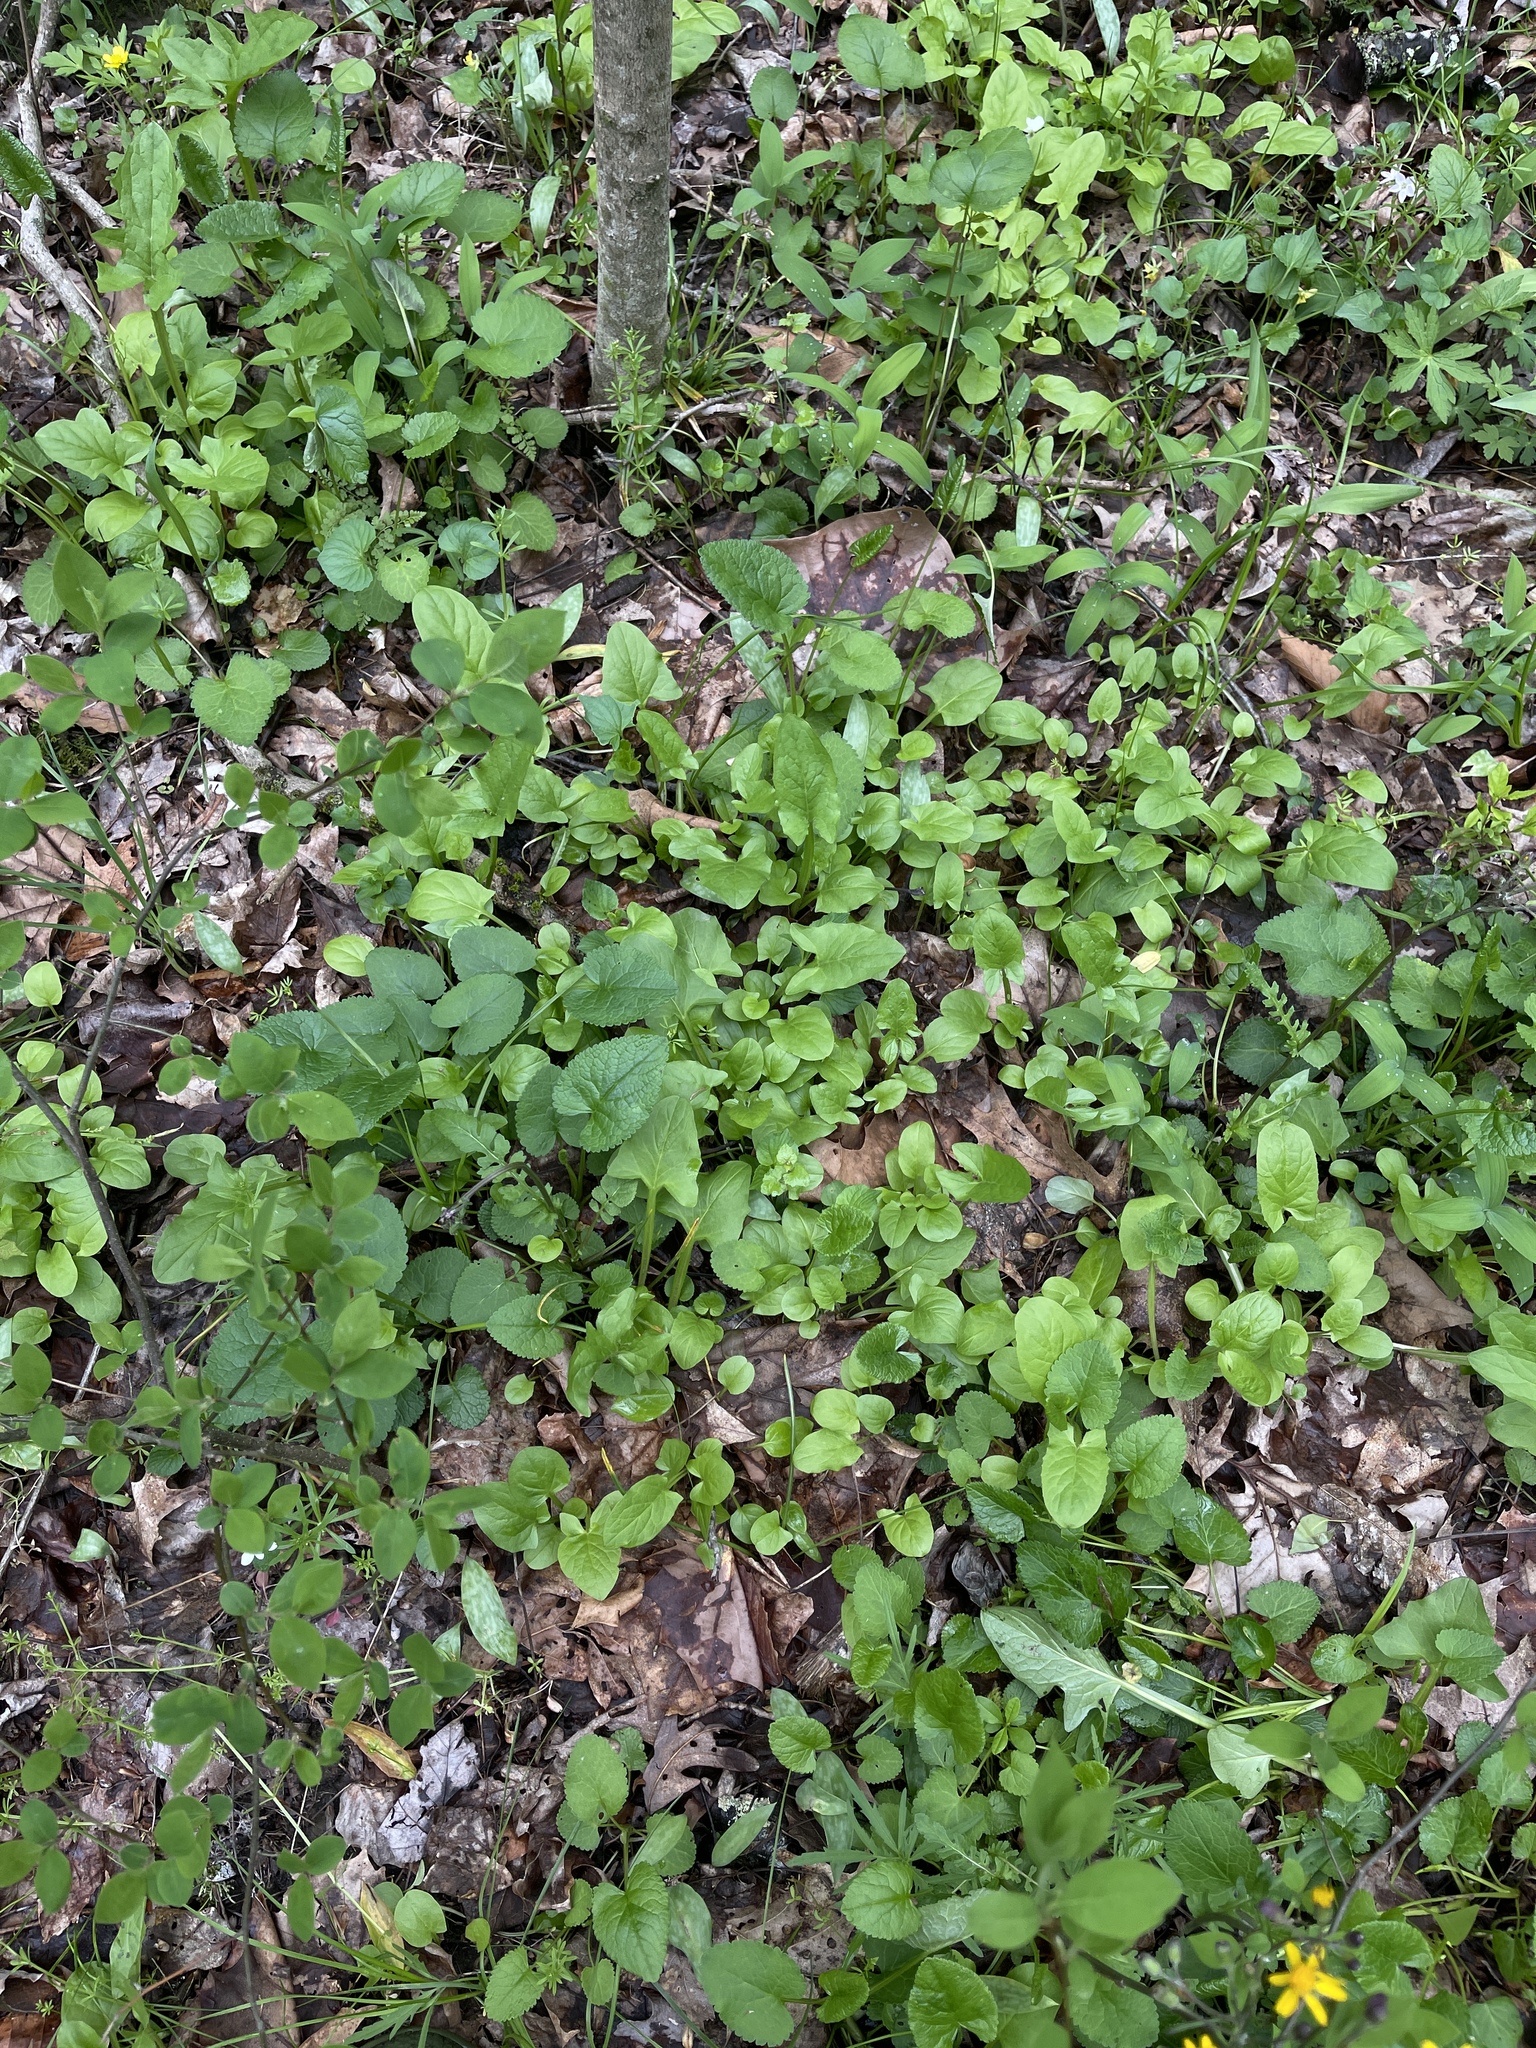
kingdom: Plantae
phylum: Tracheophyta
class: Magnoliopsida
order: Asterales
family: Asteraceae
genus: Nabalus
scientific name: Nabalus crepidineus
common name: Nodding rattlesnakeroot
